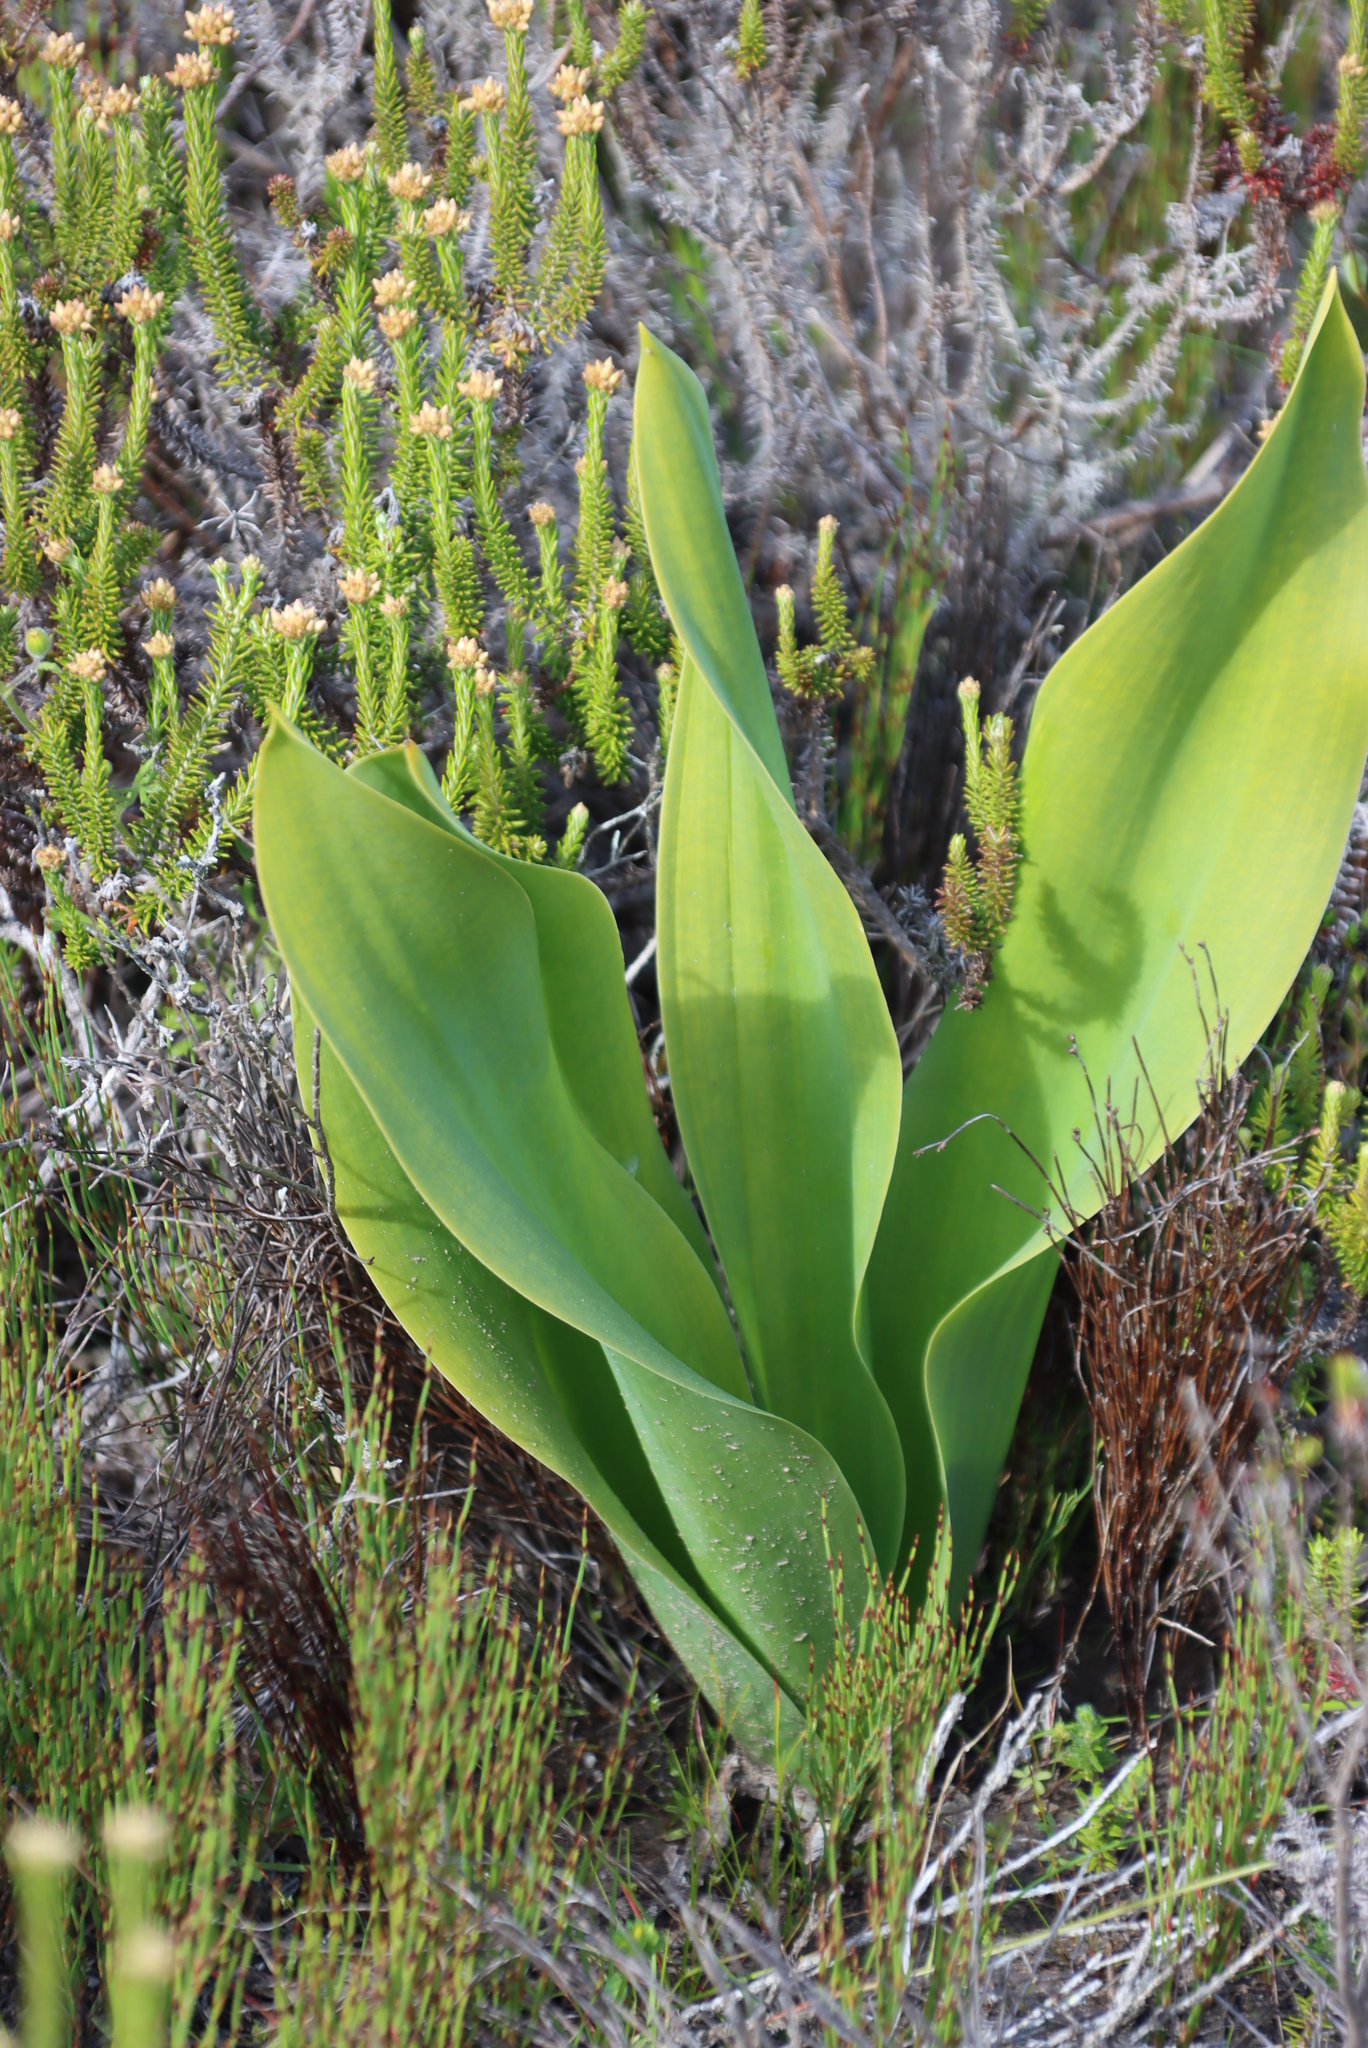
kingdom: Plantae
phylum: Tracheophyta
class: Liliopsida
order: Asparagales
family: Asparagaceae
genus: Drimia
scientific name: Drimia capensis
